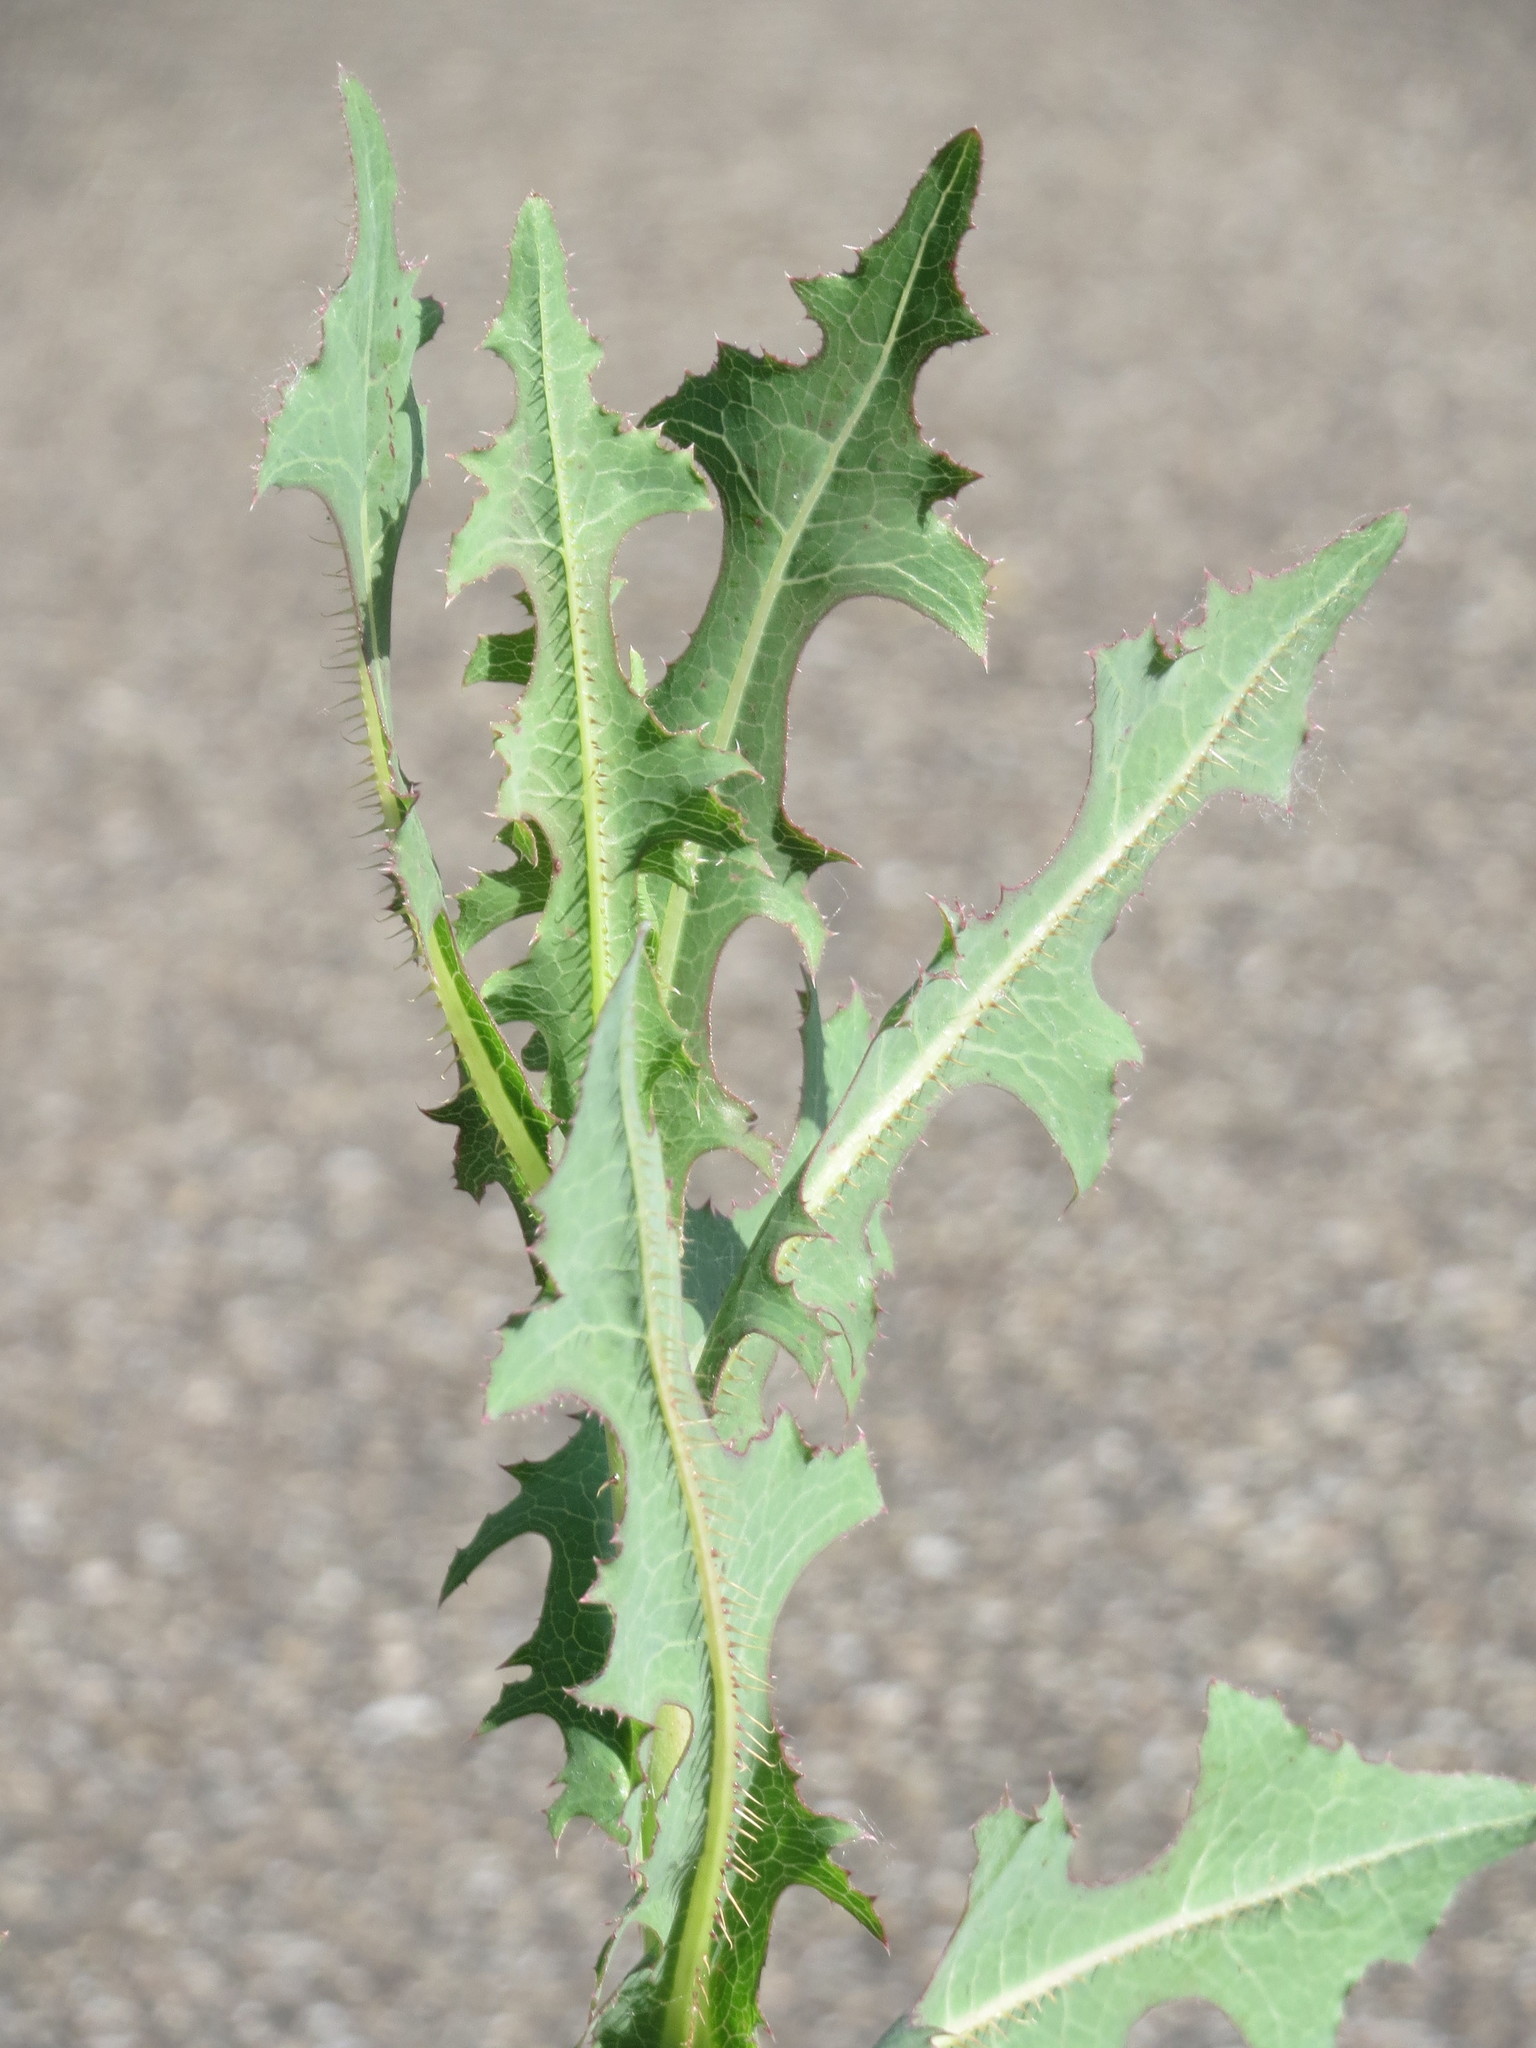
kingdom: Plantae
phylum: Tracheophyta
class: Magnoliopsida
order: Asterales
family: Asteraceae
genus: Lactuca
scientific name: Lactuca serriola
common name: Prickly lettuce
